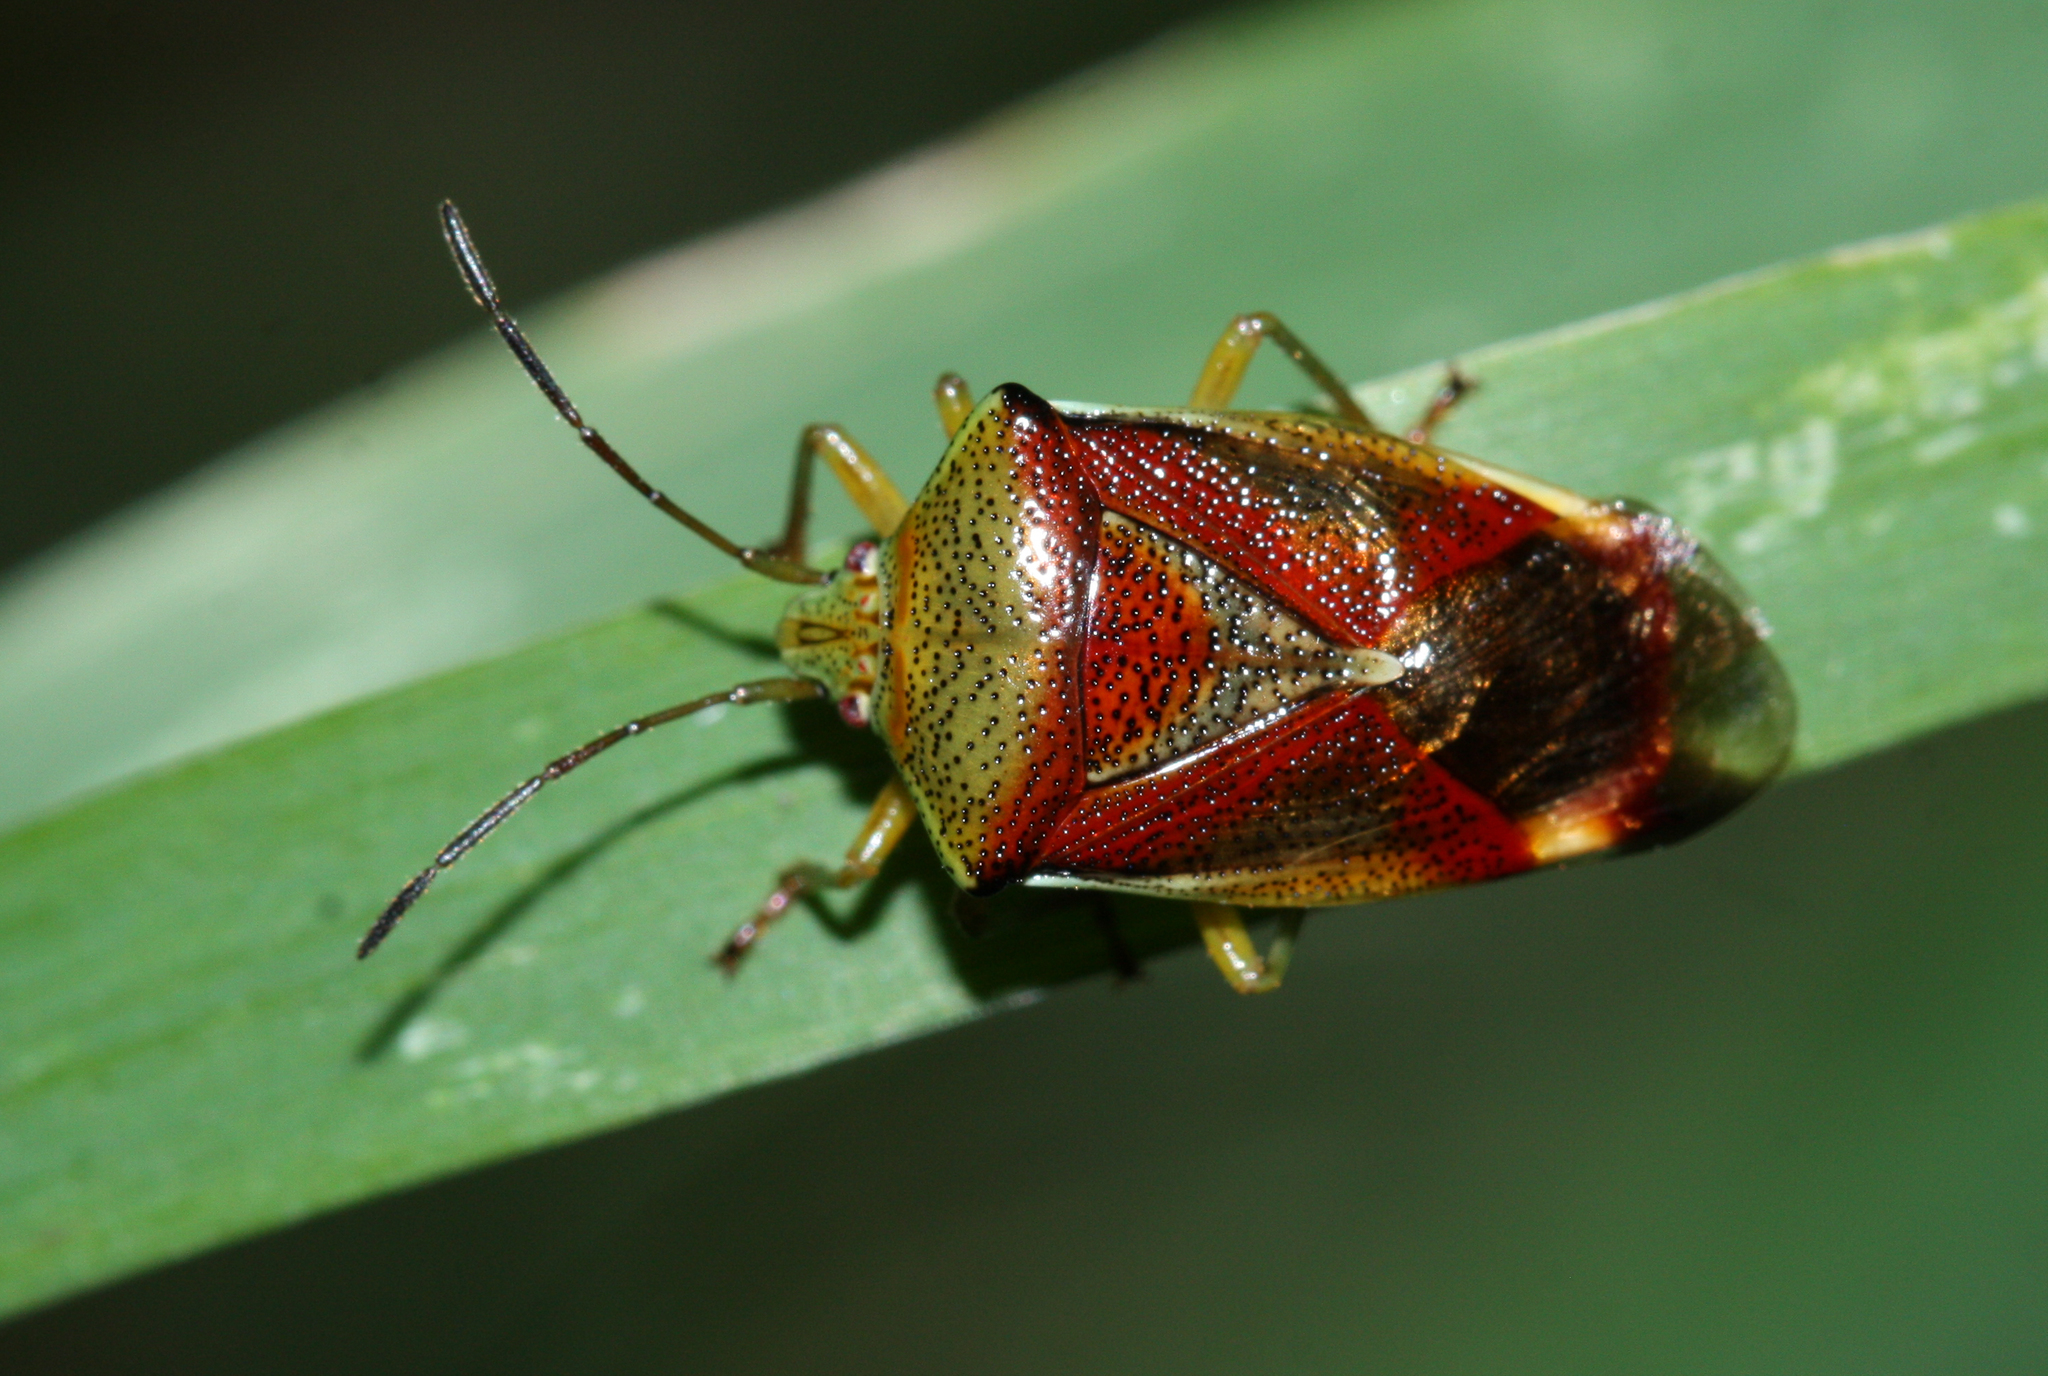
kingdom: Animalia
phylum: Arthropoda
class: Insecta
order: Hemiptera
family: Acanthosomatidae
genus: Elasmostethus
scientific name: Elasmostethus interstinctus
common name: Birch shieldbug
